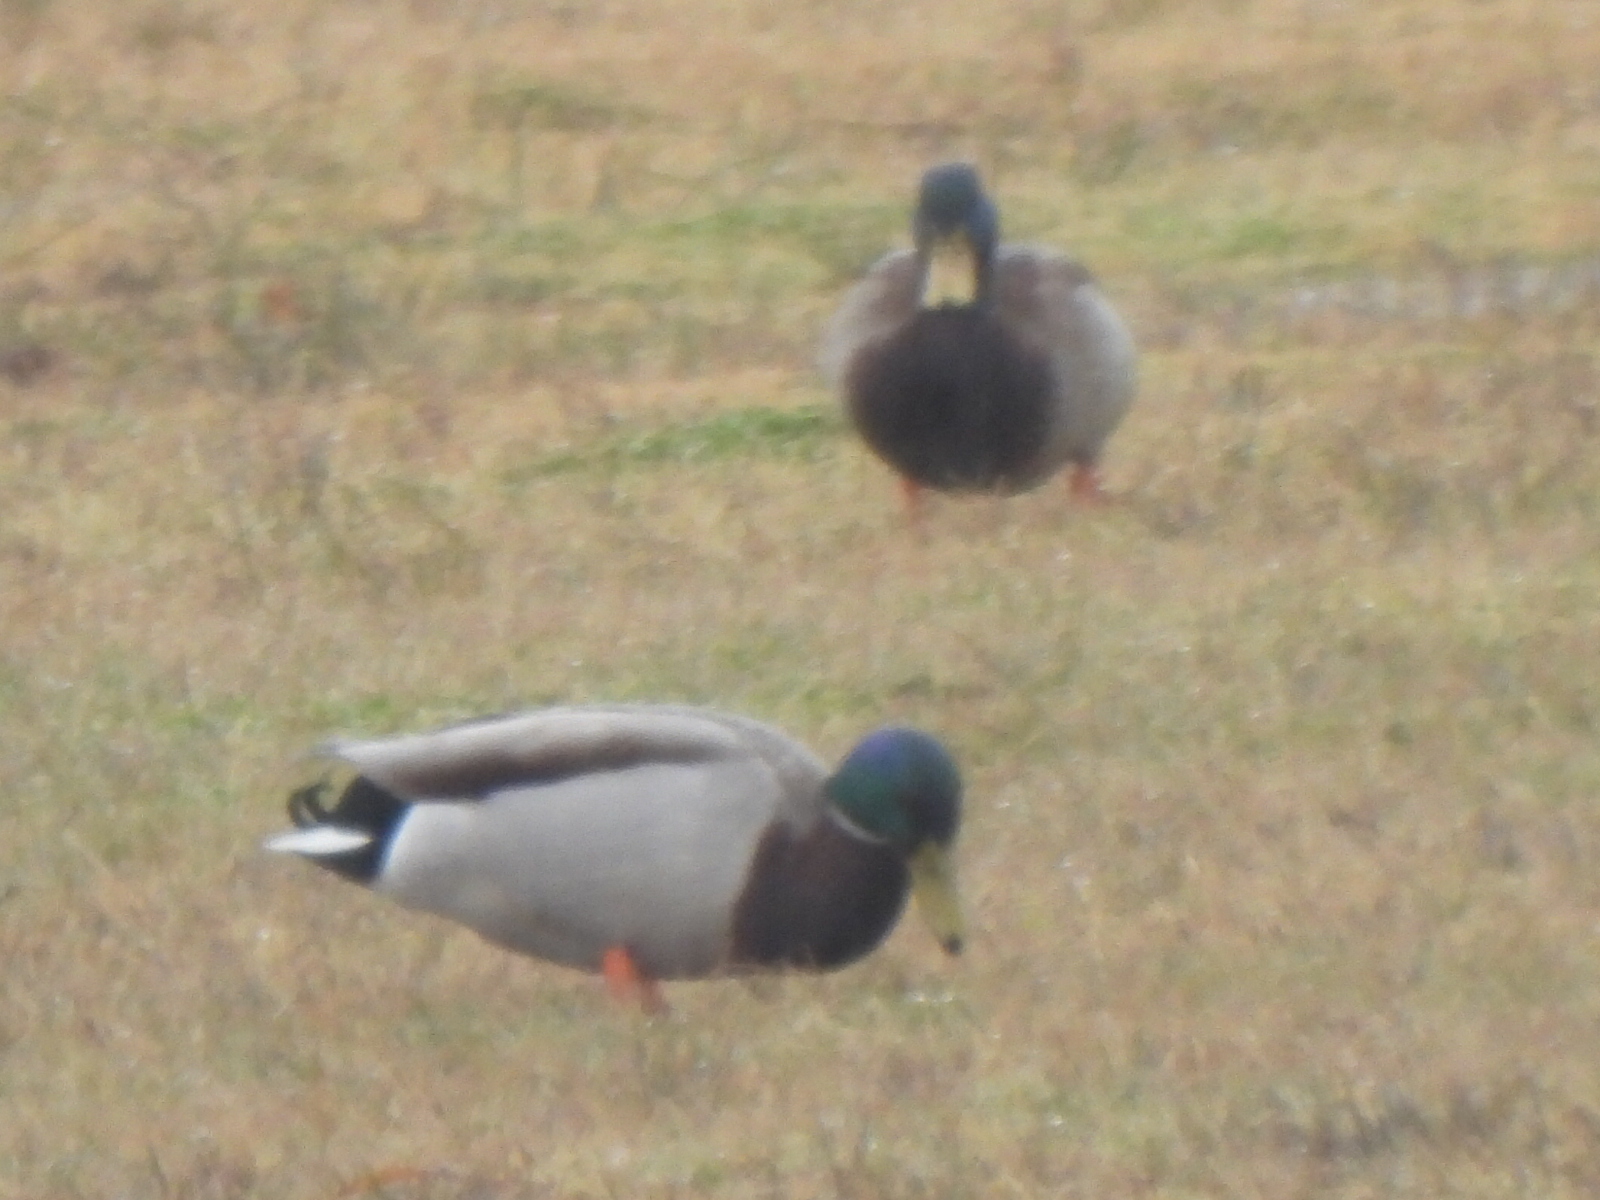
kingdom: Animalia
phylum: Chordata
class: Aves
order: Anseriformes
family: Anatidae
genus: Anas
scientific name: Anas platyrhynchos
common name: Mallard
